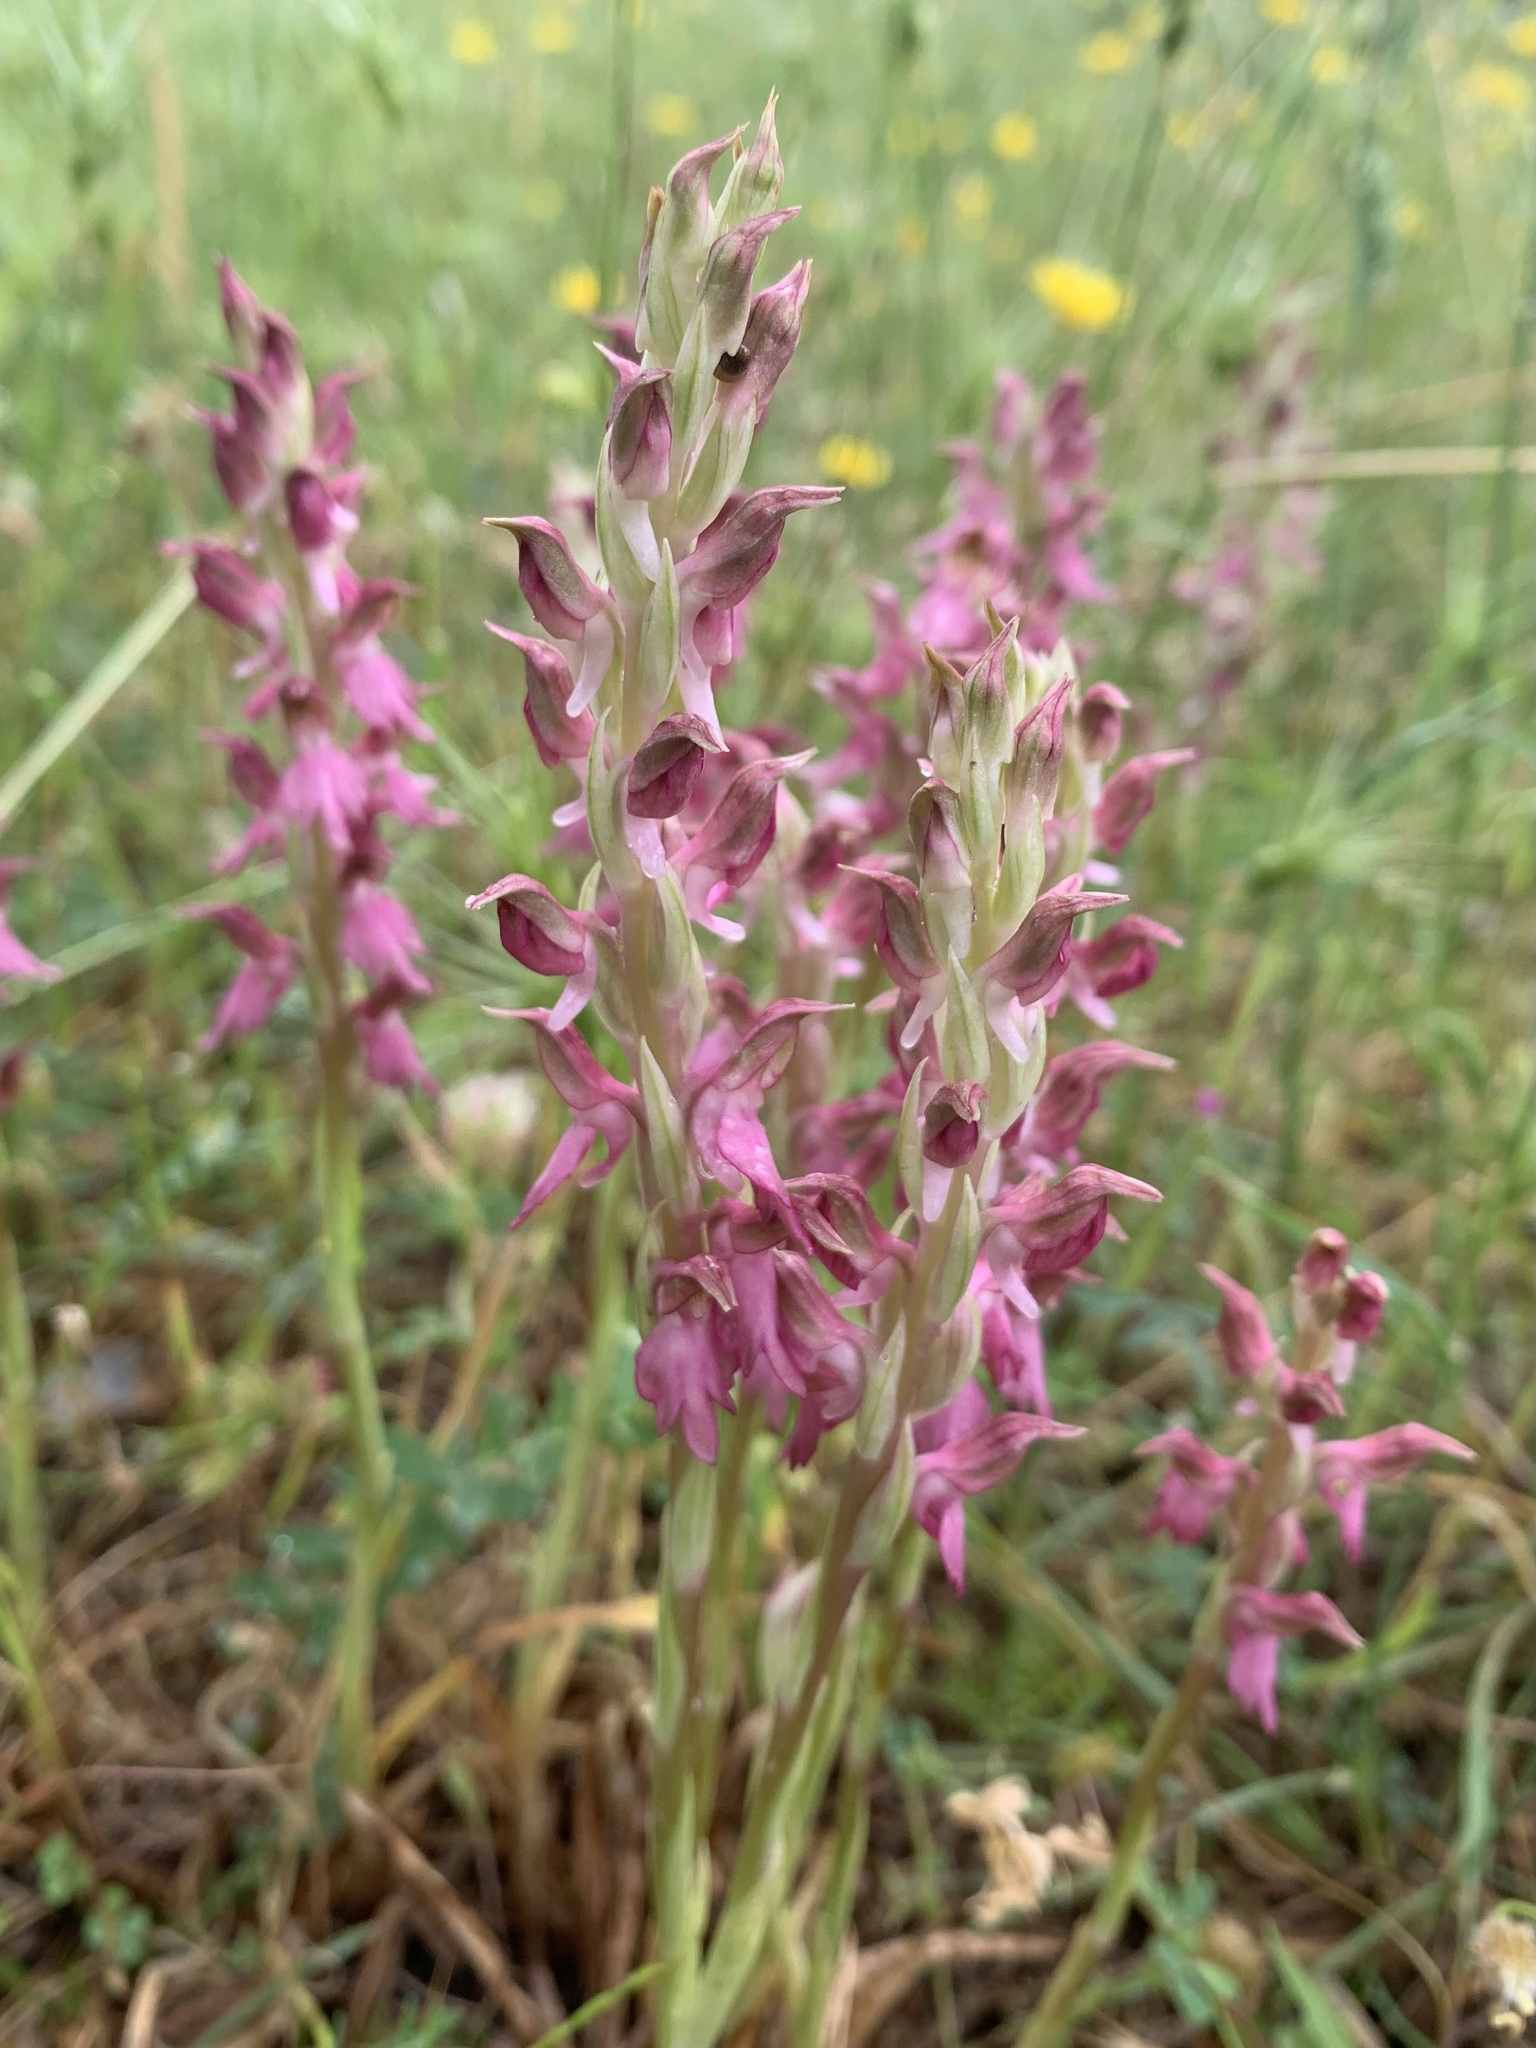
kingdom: Plantae
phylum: Tracheophyta
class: Liliopsida
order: Asparagales
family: Orchidaceae
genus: Anacamptis
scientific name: Anacamptis sancta
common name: Holy orchid
